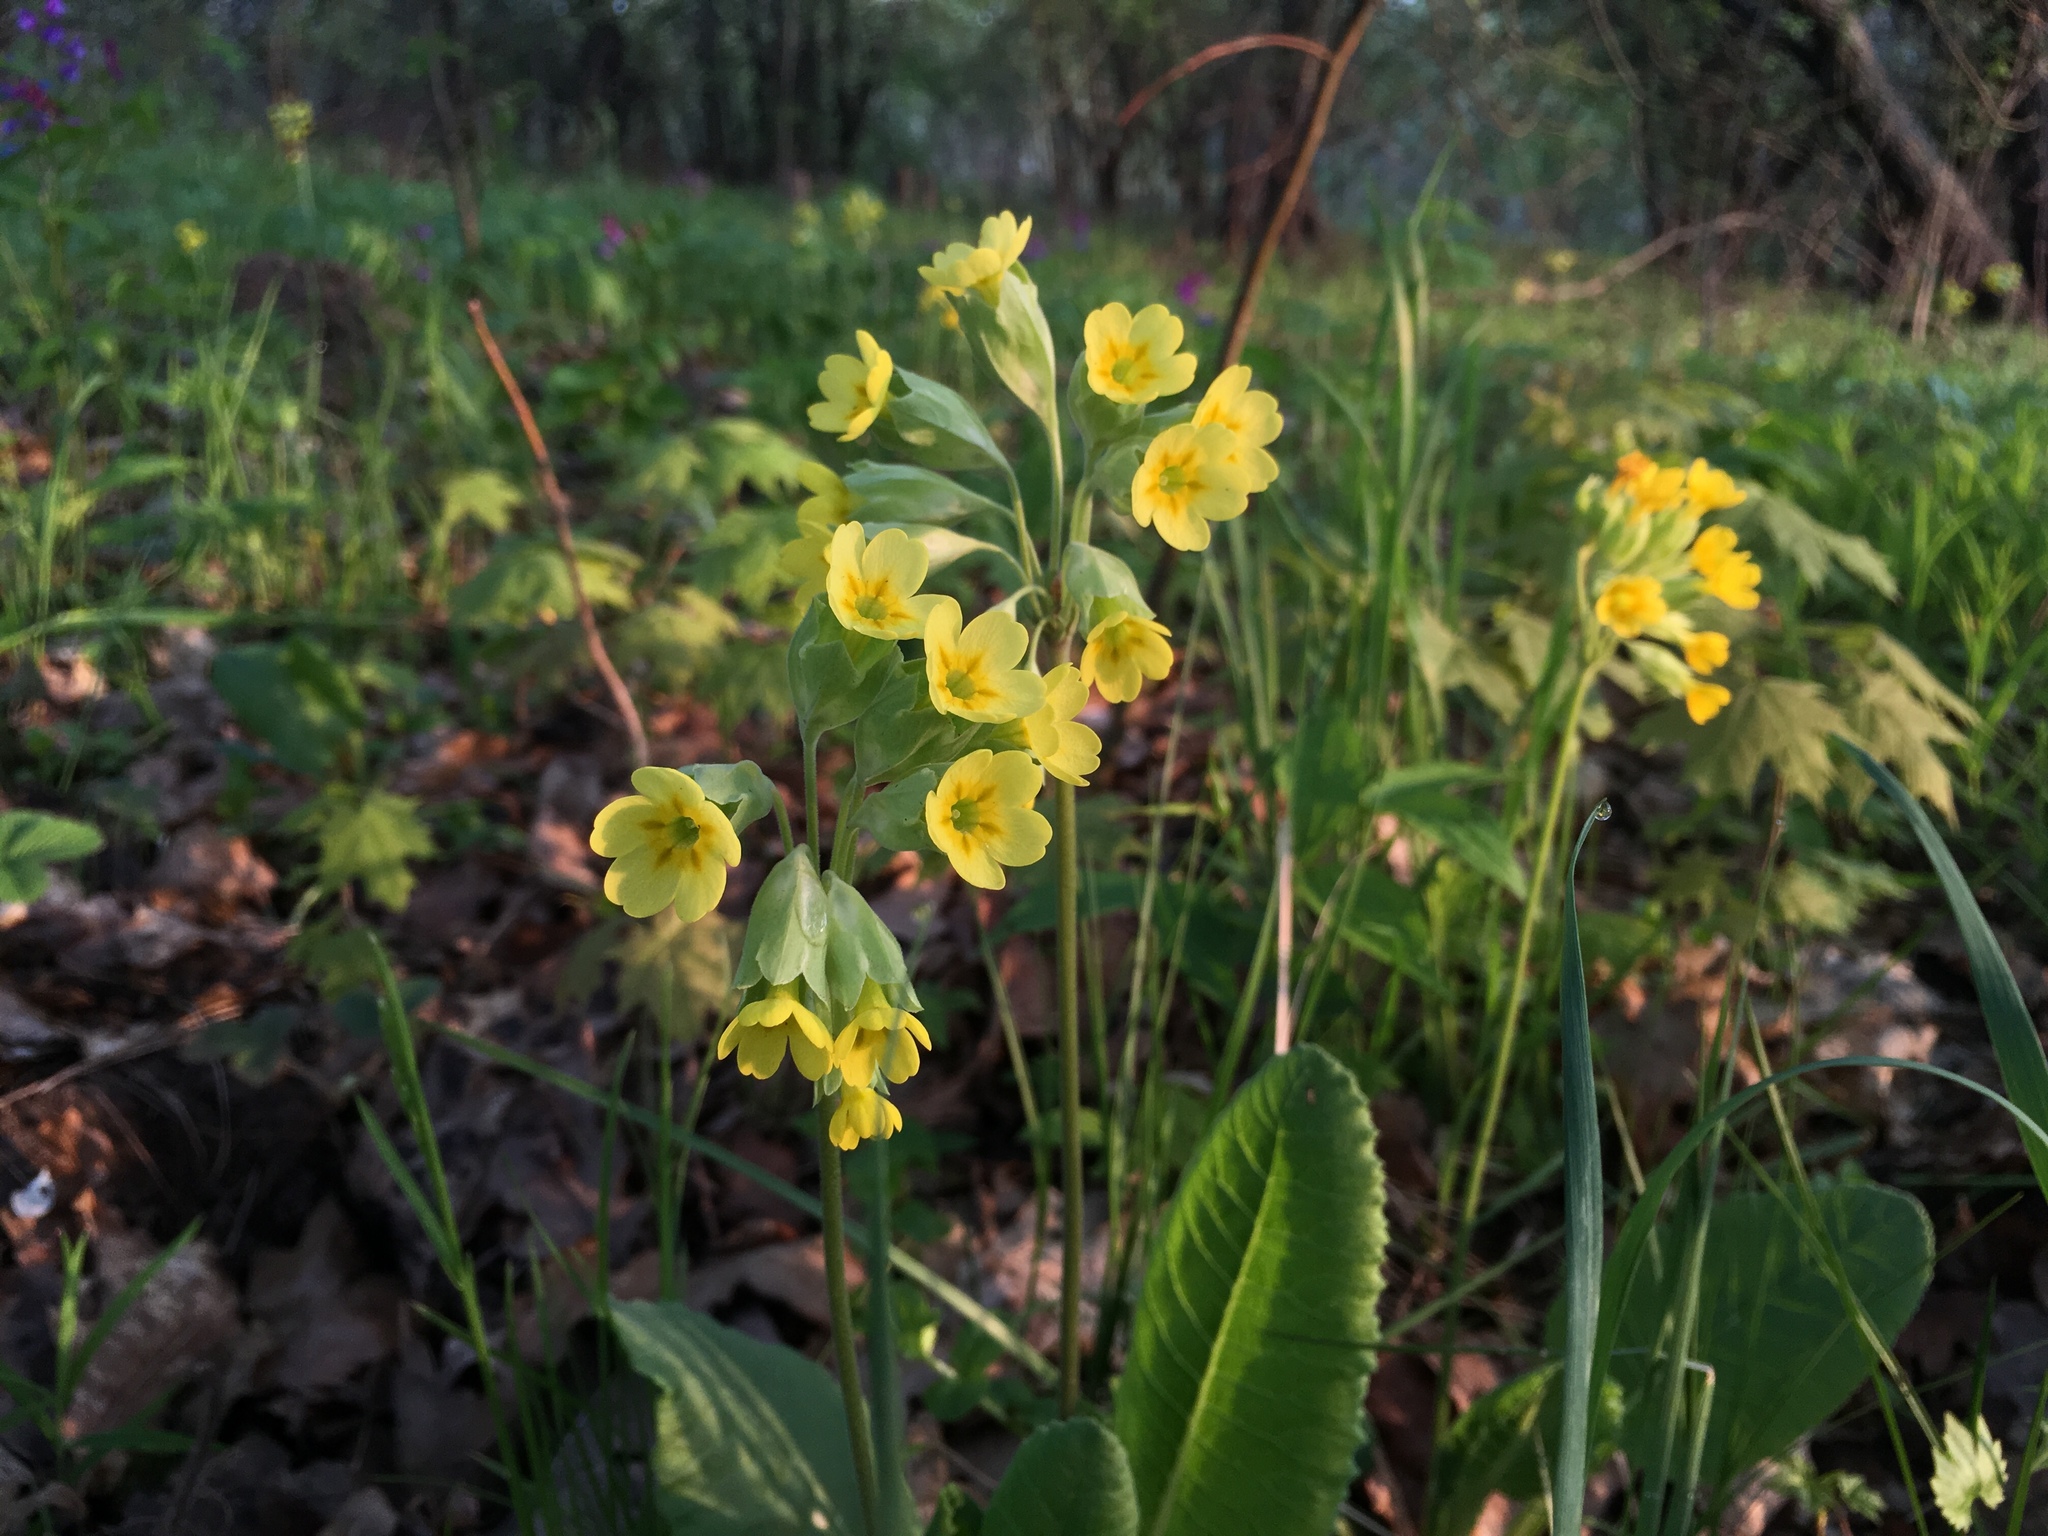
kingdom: Plantae
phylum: Tracheophyta
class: Magnoliopsida
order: Ericales
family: Primulaceae
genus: Primula
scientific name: Primula veris
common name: Cowslip
